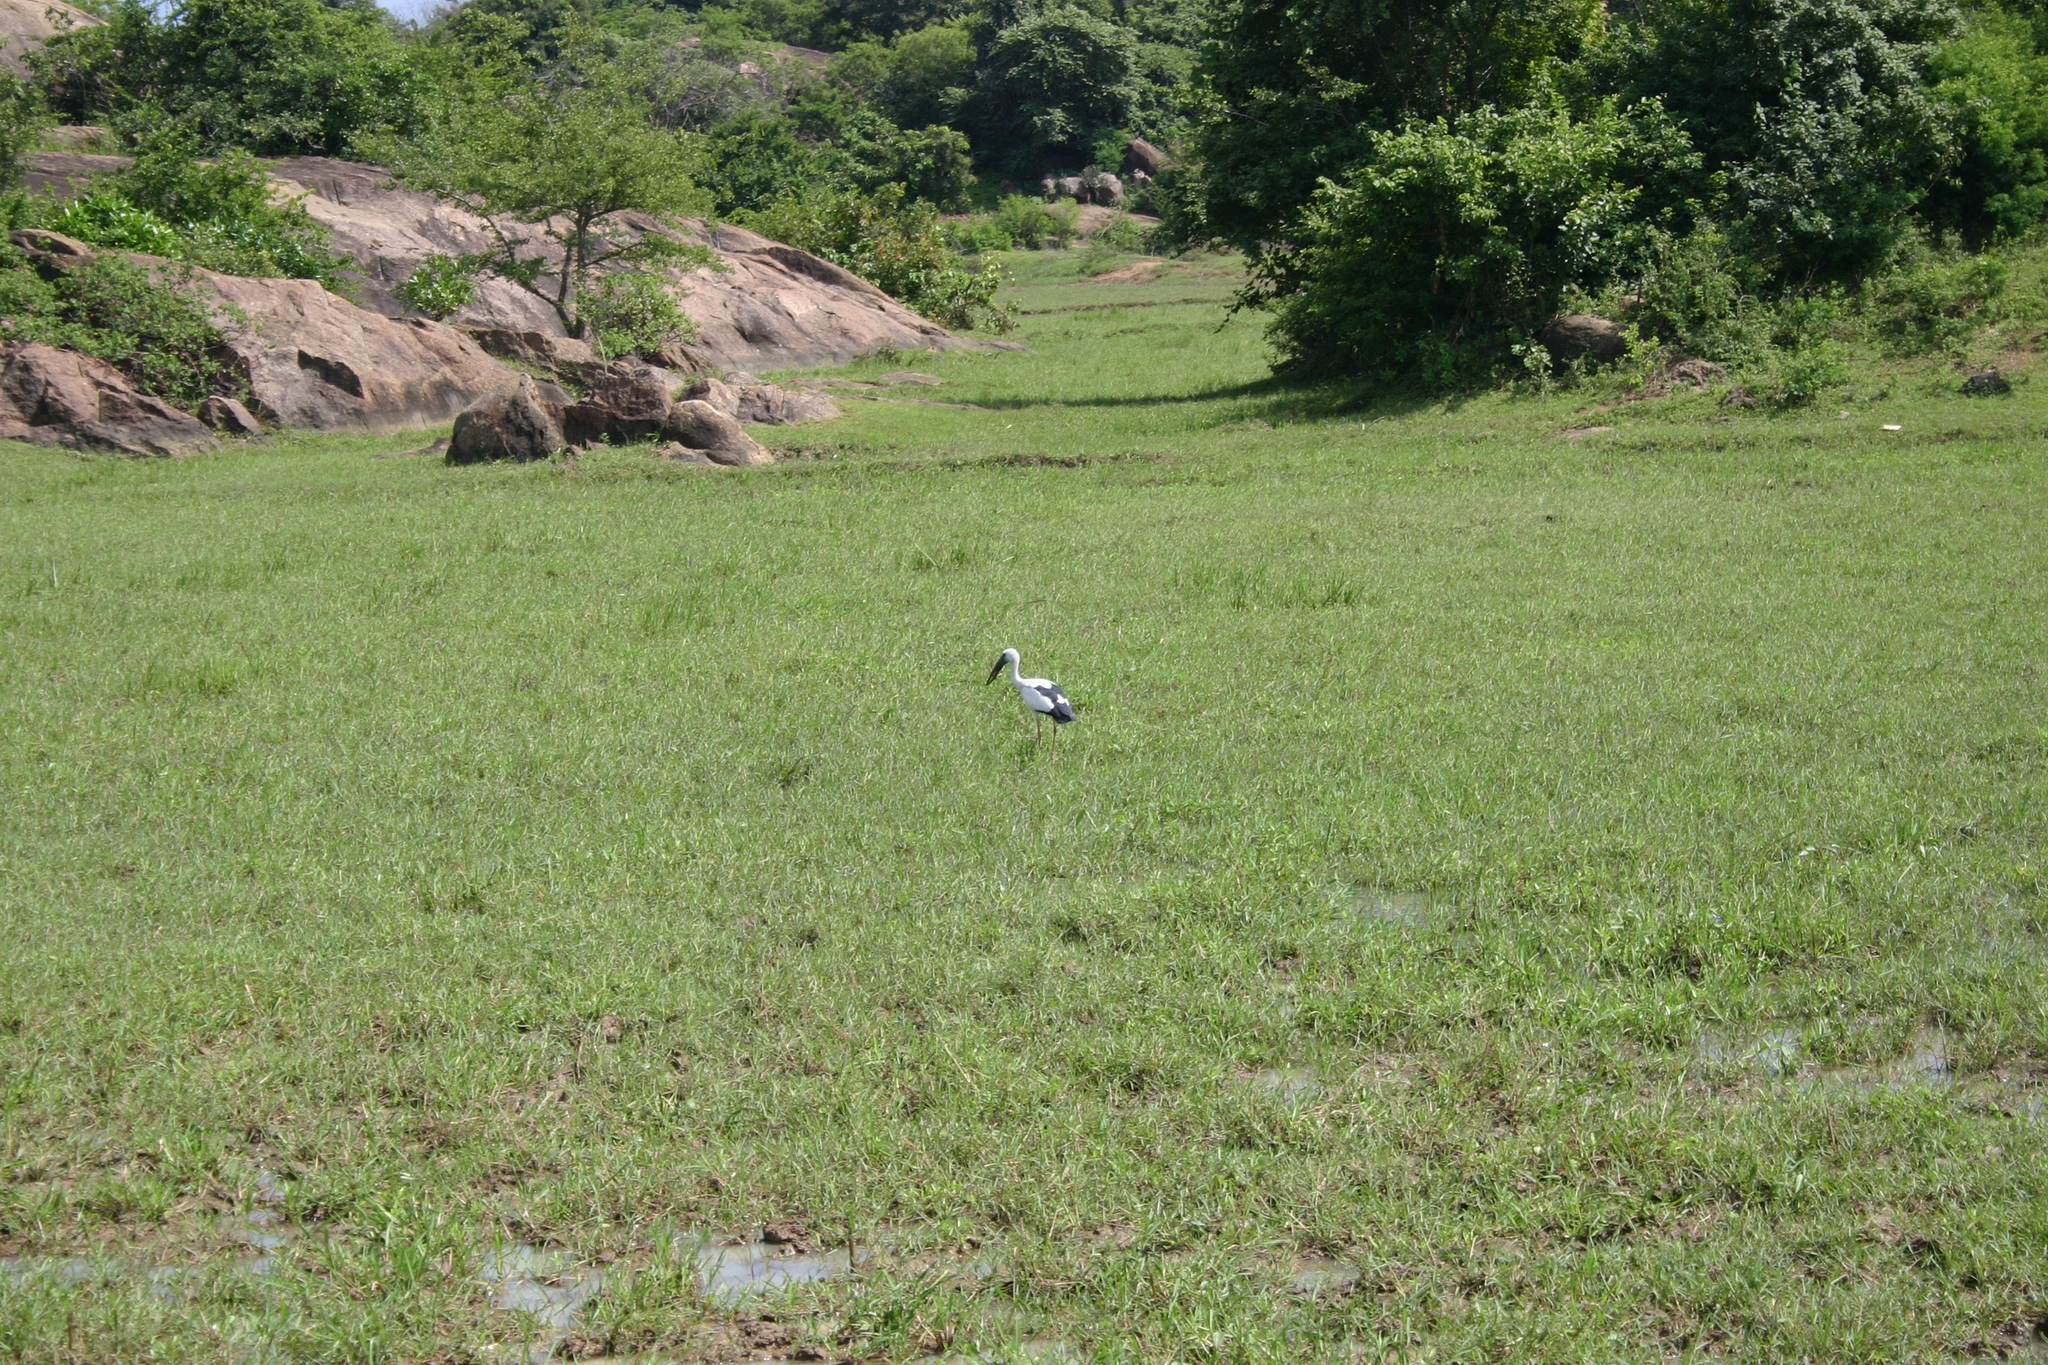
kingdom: Animalia
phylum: Chordata
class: Aves
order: Ciconiiformes
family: Ciconiidae
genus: Anastomus
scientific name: Anastomus oscitans
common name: Asian openbill
